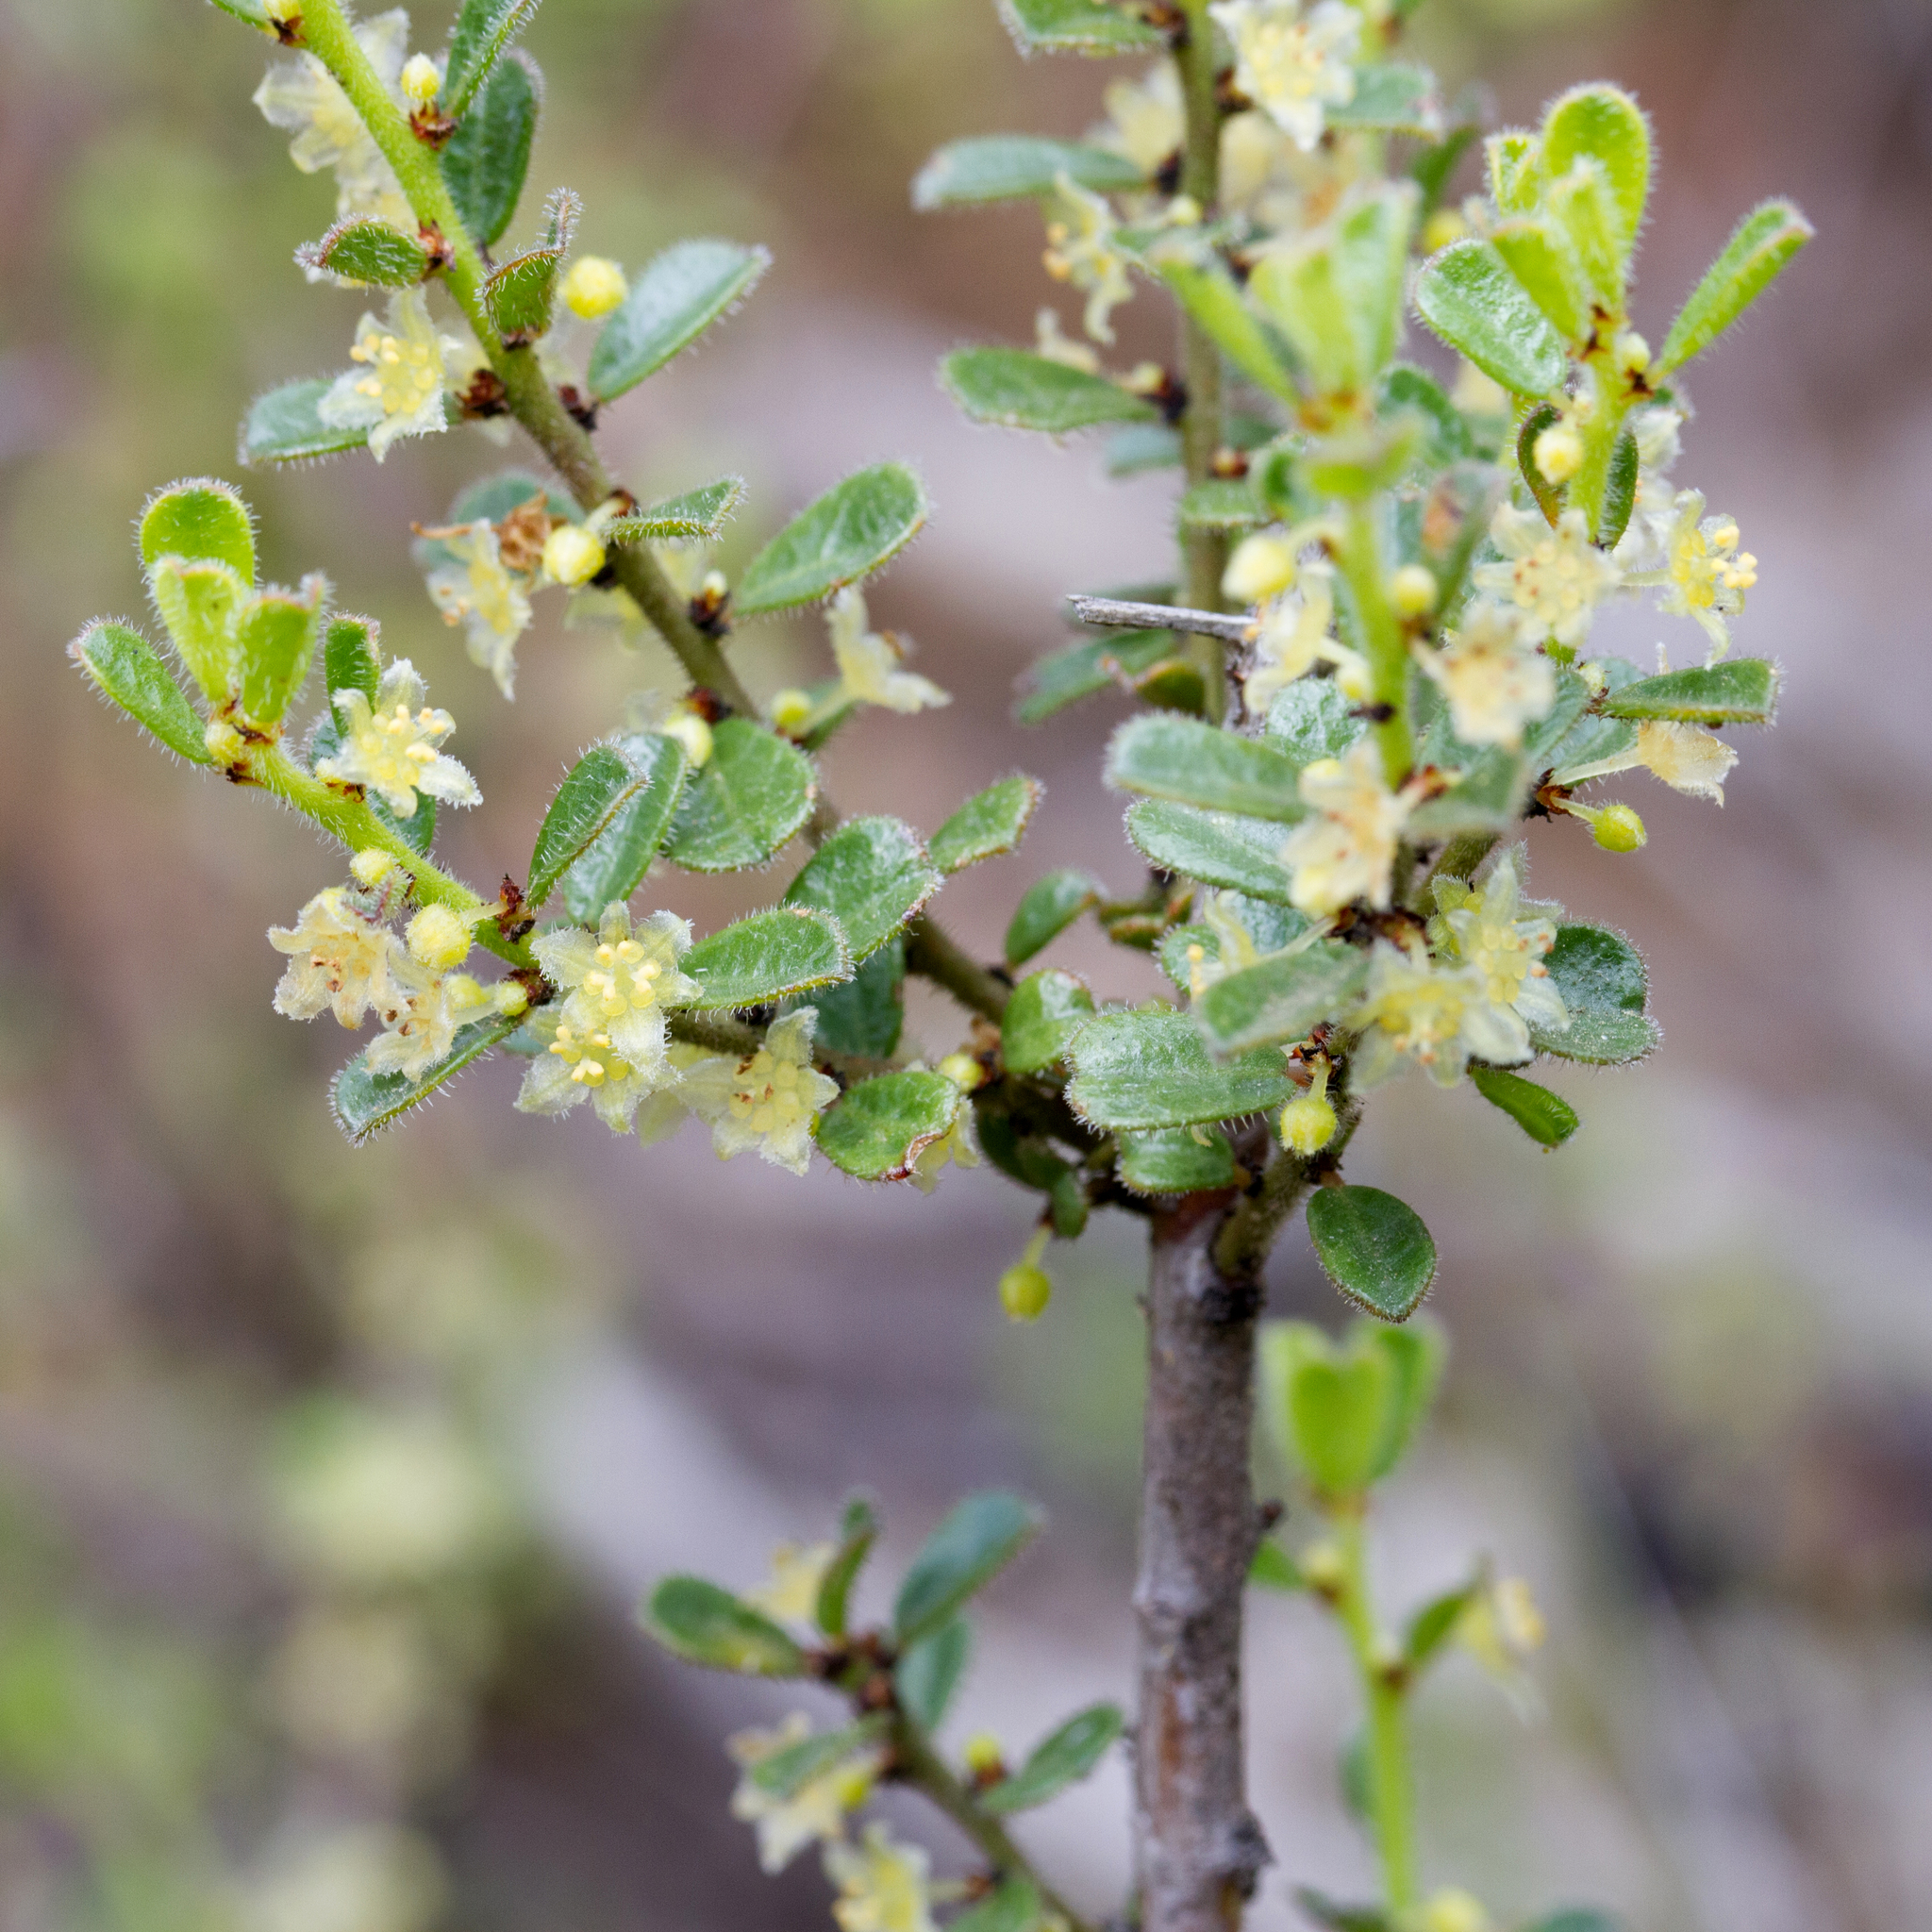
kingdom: Plantae
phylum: Tracheophyta
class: Magnoliopsida
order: Malpighiales
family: Phyllanthaceae
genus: Phyllanthus
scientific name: Phyllanthus hirtellus
